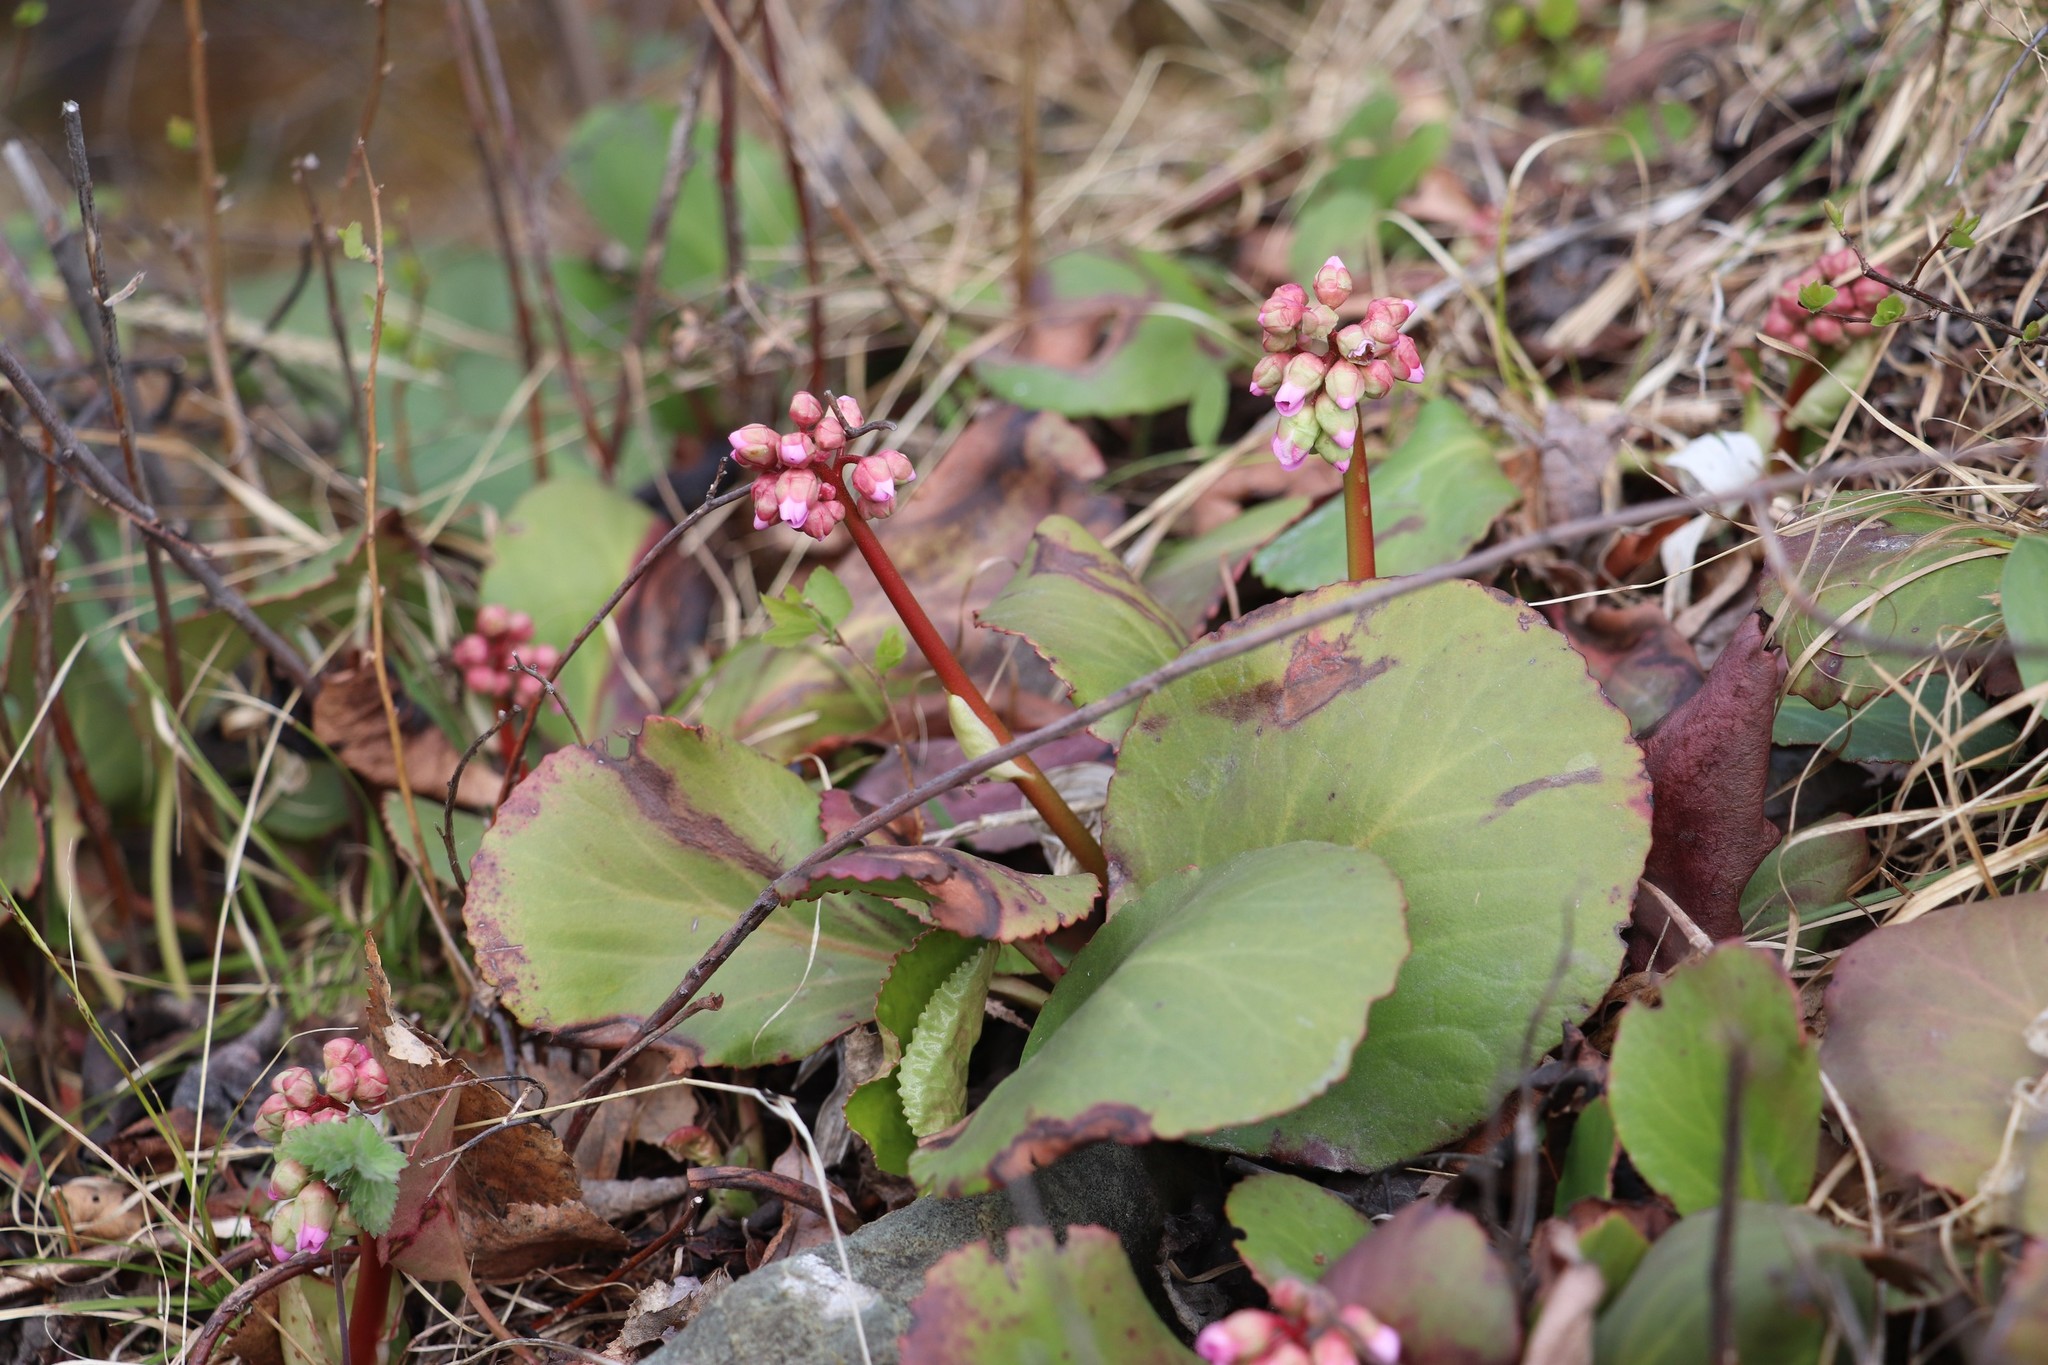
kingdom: Plantae
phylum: Tracheophyta
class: Magnoliopsida
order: Saxifragales
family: Saxifragaceae
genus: Bergenia
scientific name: Bergenia crassifolia
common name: Elephant-ears
